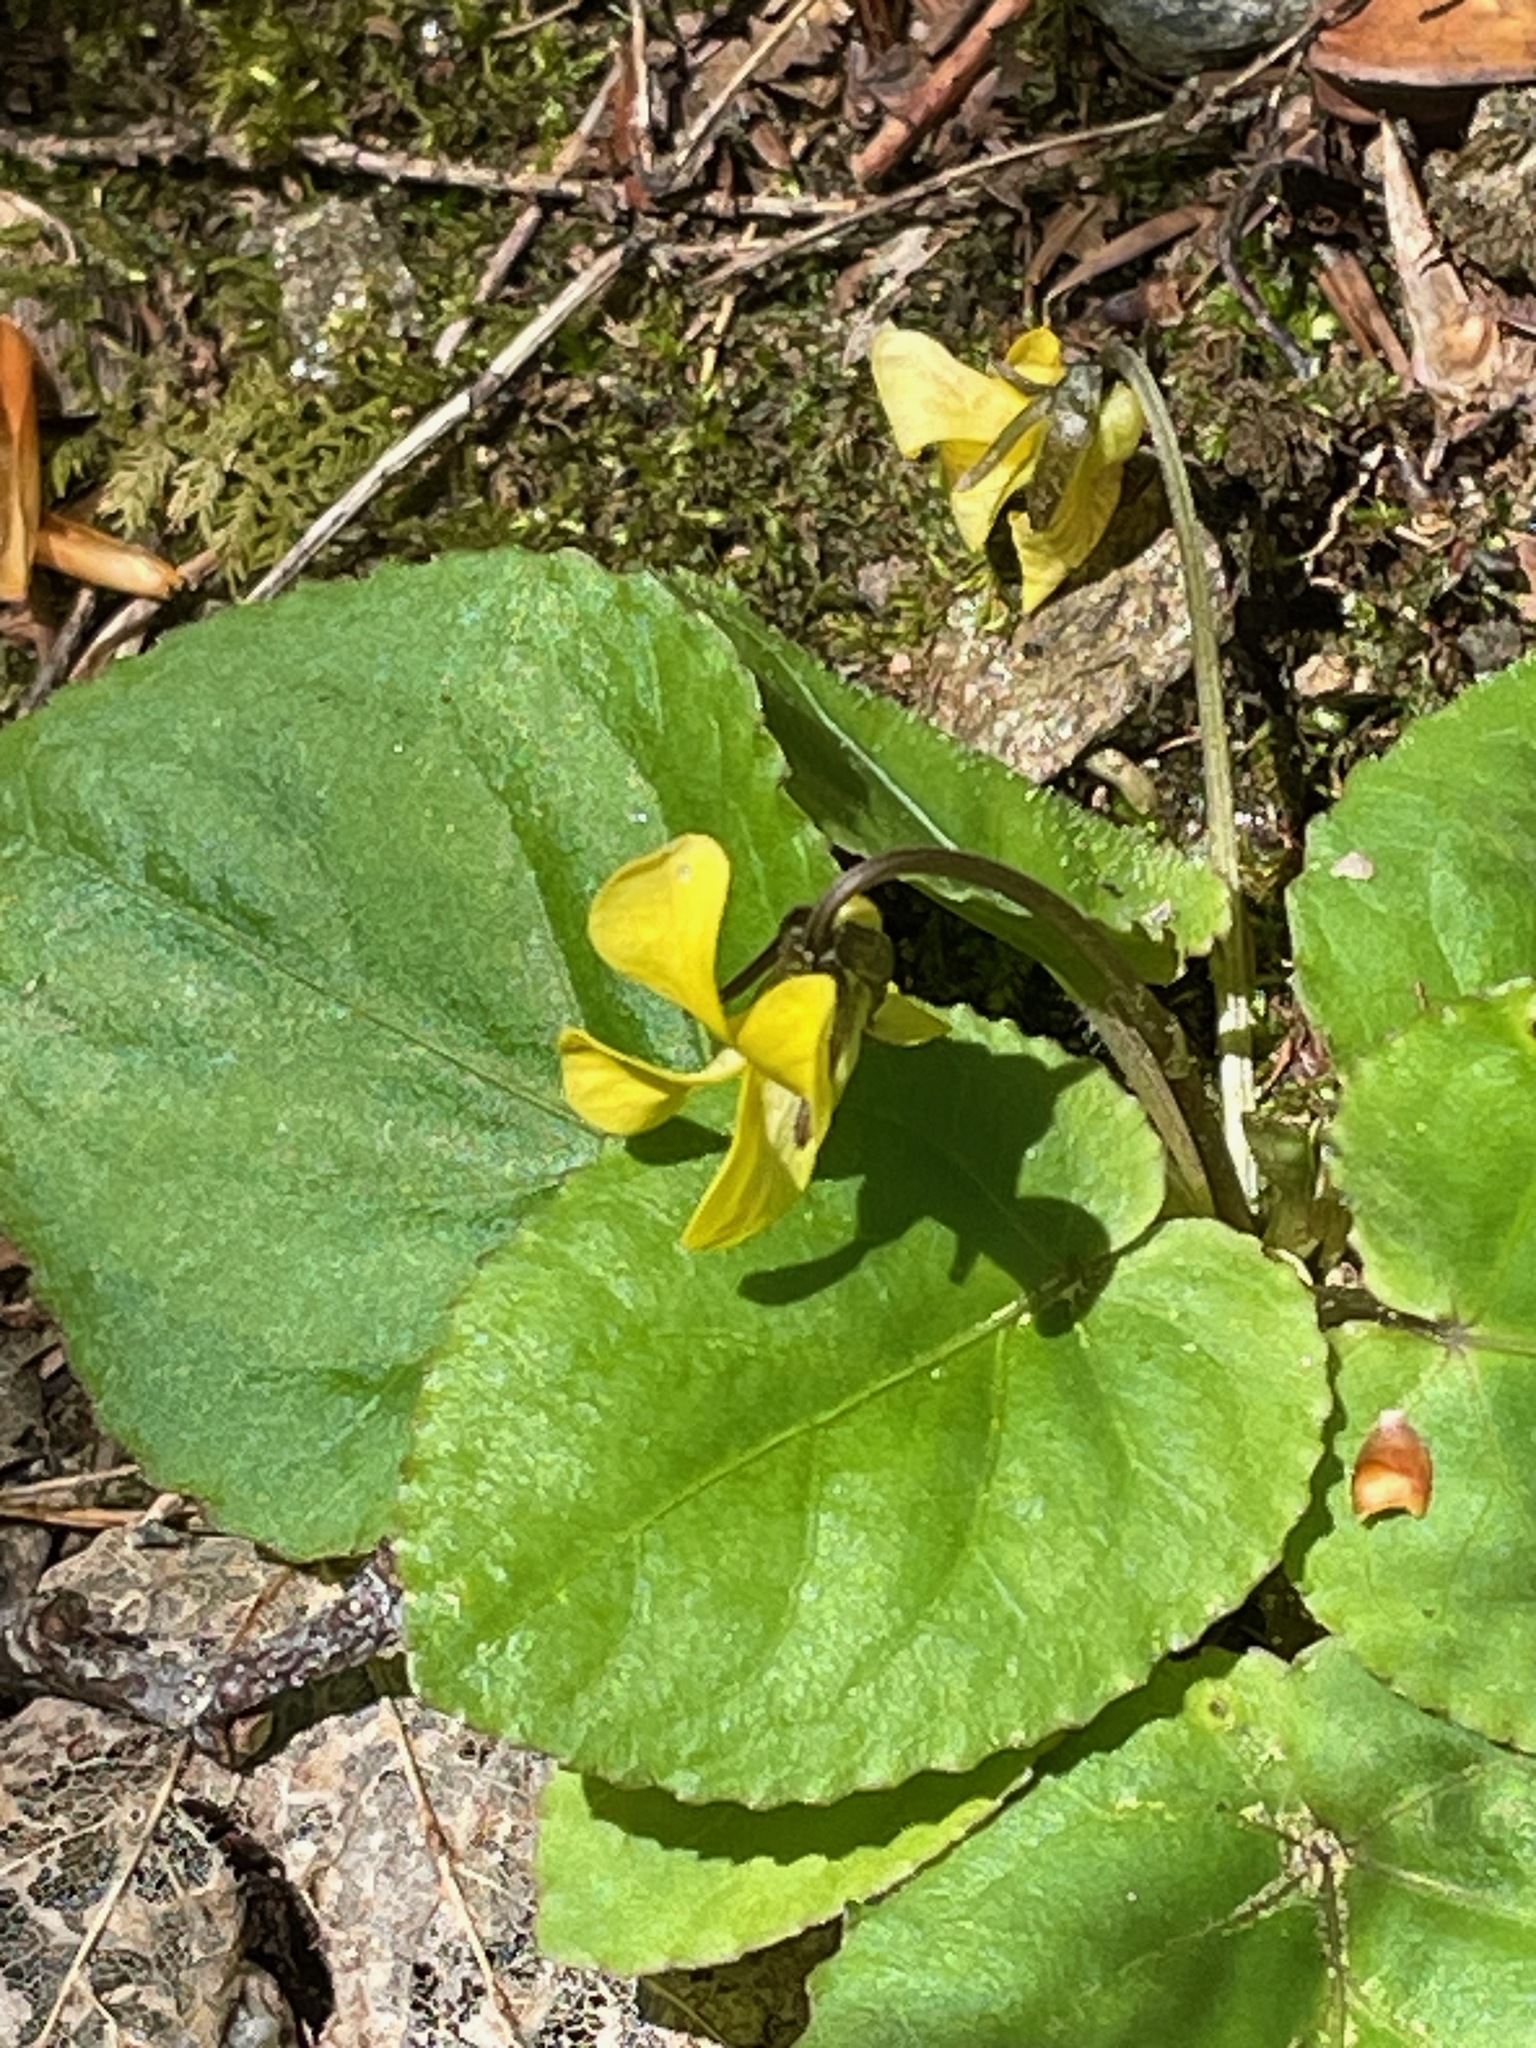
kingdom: Plantae
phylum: Tracheophyta
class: Magnoliopsida
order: Malpighiales
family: Violaceae
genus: Viola
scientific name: Viola rotundifolia
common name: Early yellow violet
